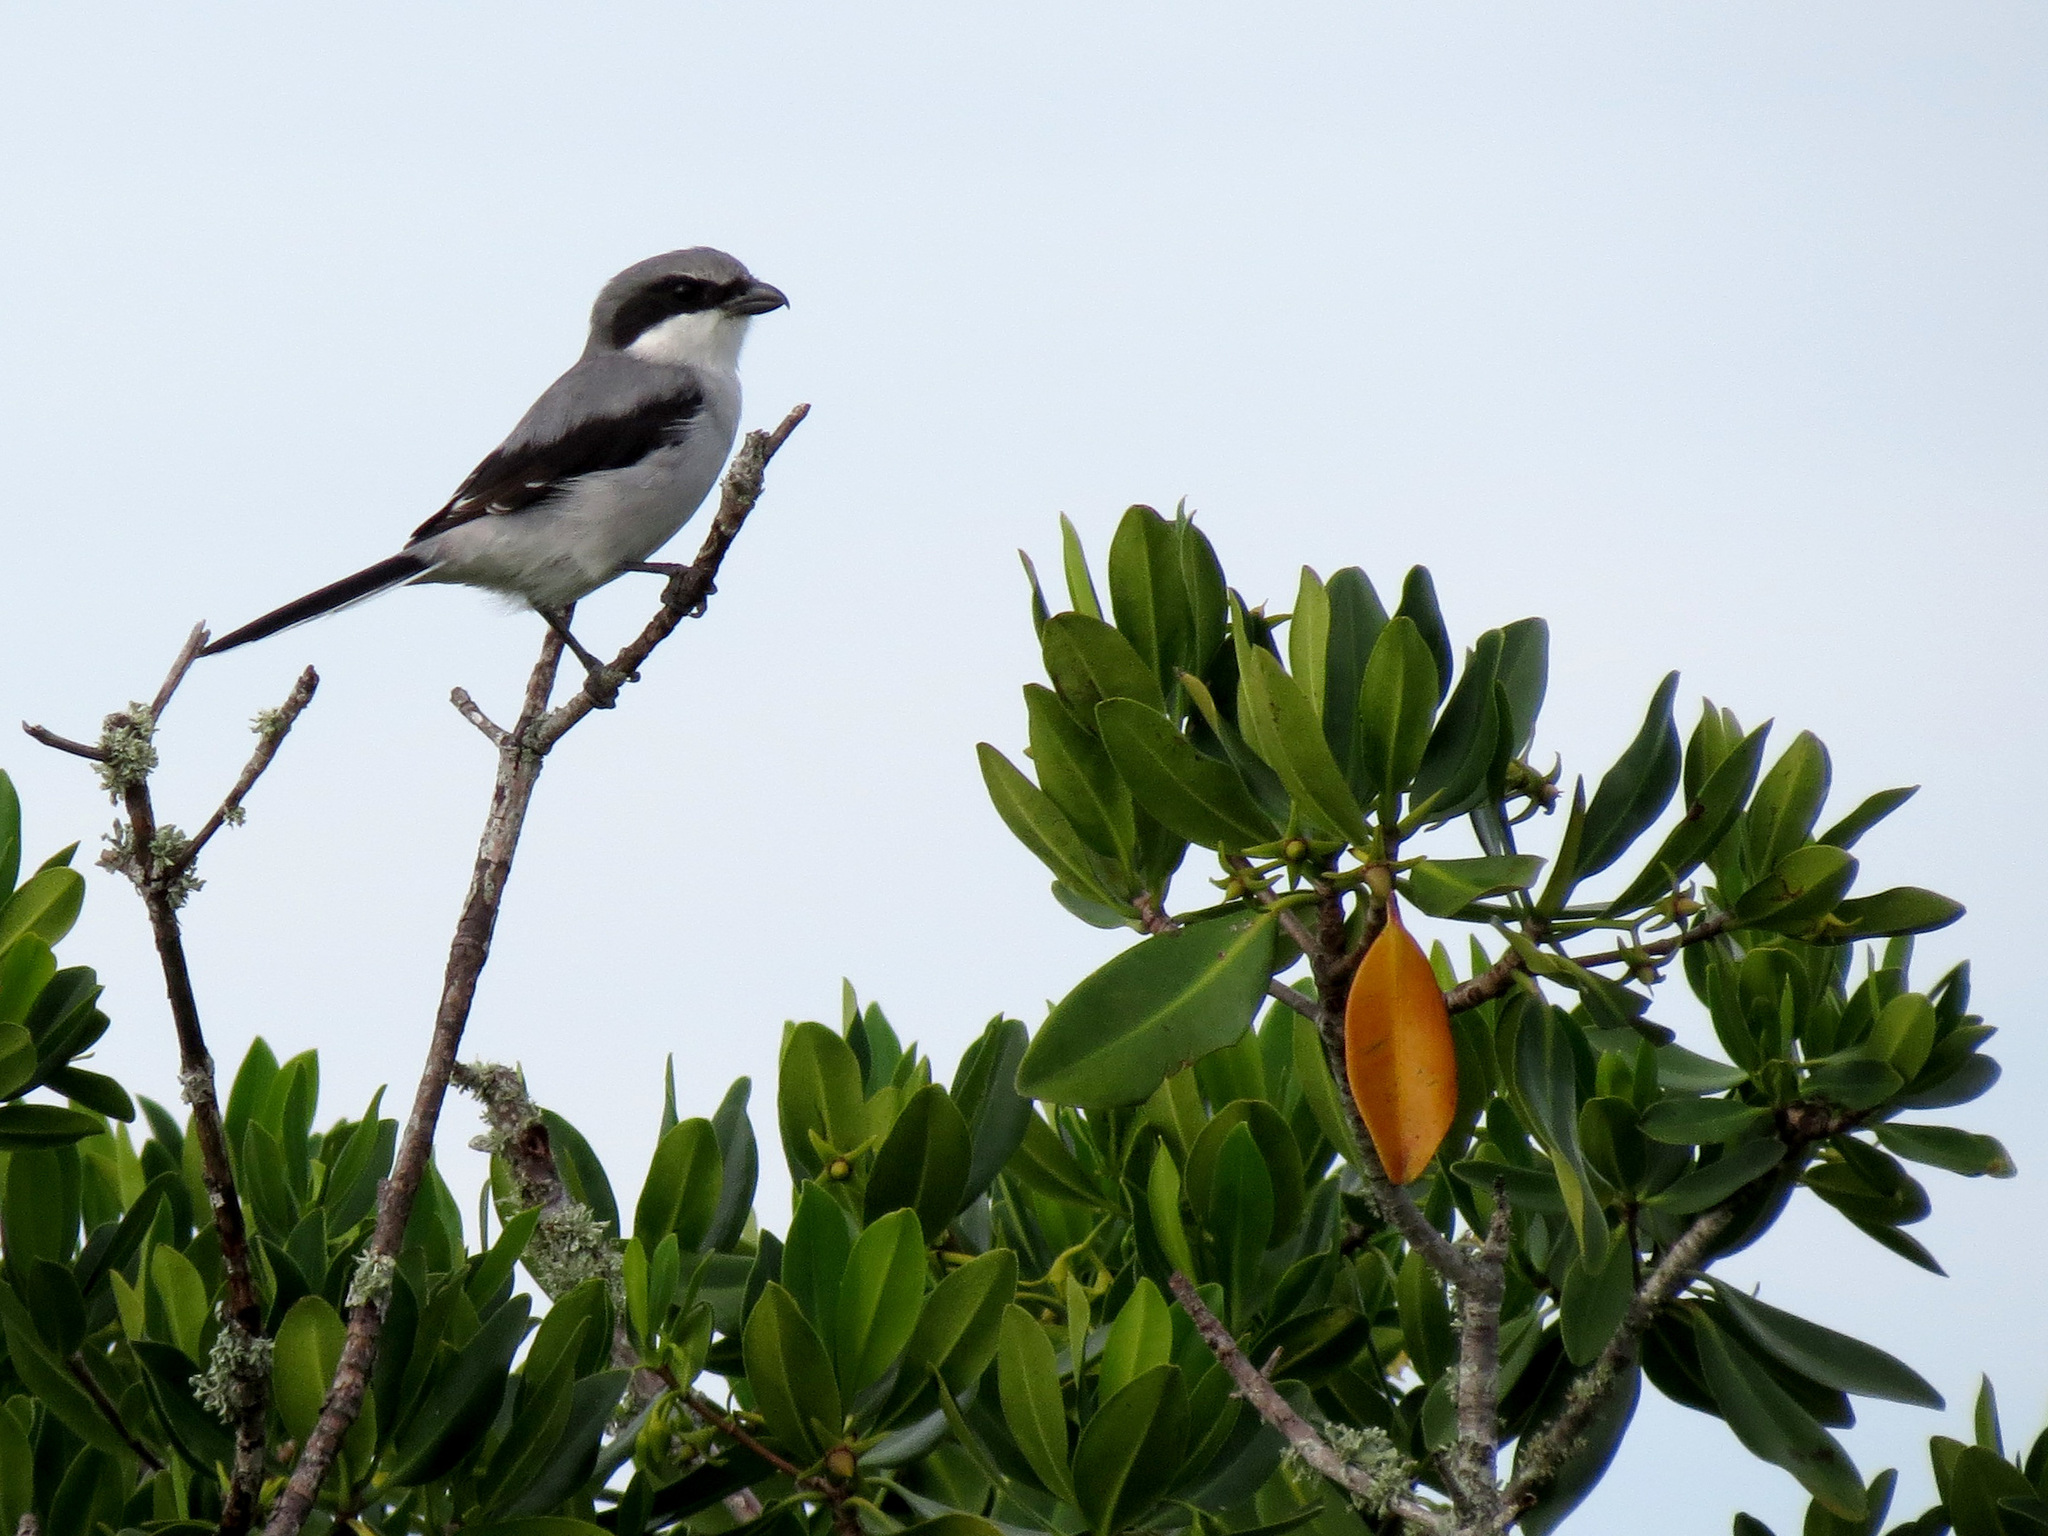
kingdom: Animalia
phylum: Chordata
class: Aves
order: Passeriformes
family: Laniidae
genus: Lanius
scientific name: Lanius ludovicianus
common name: Loggerhead shrike
